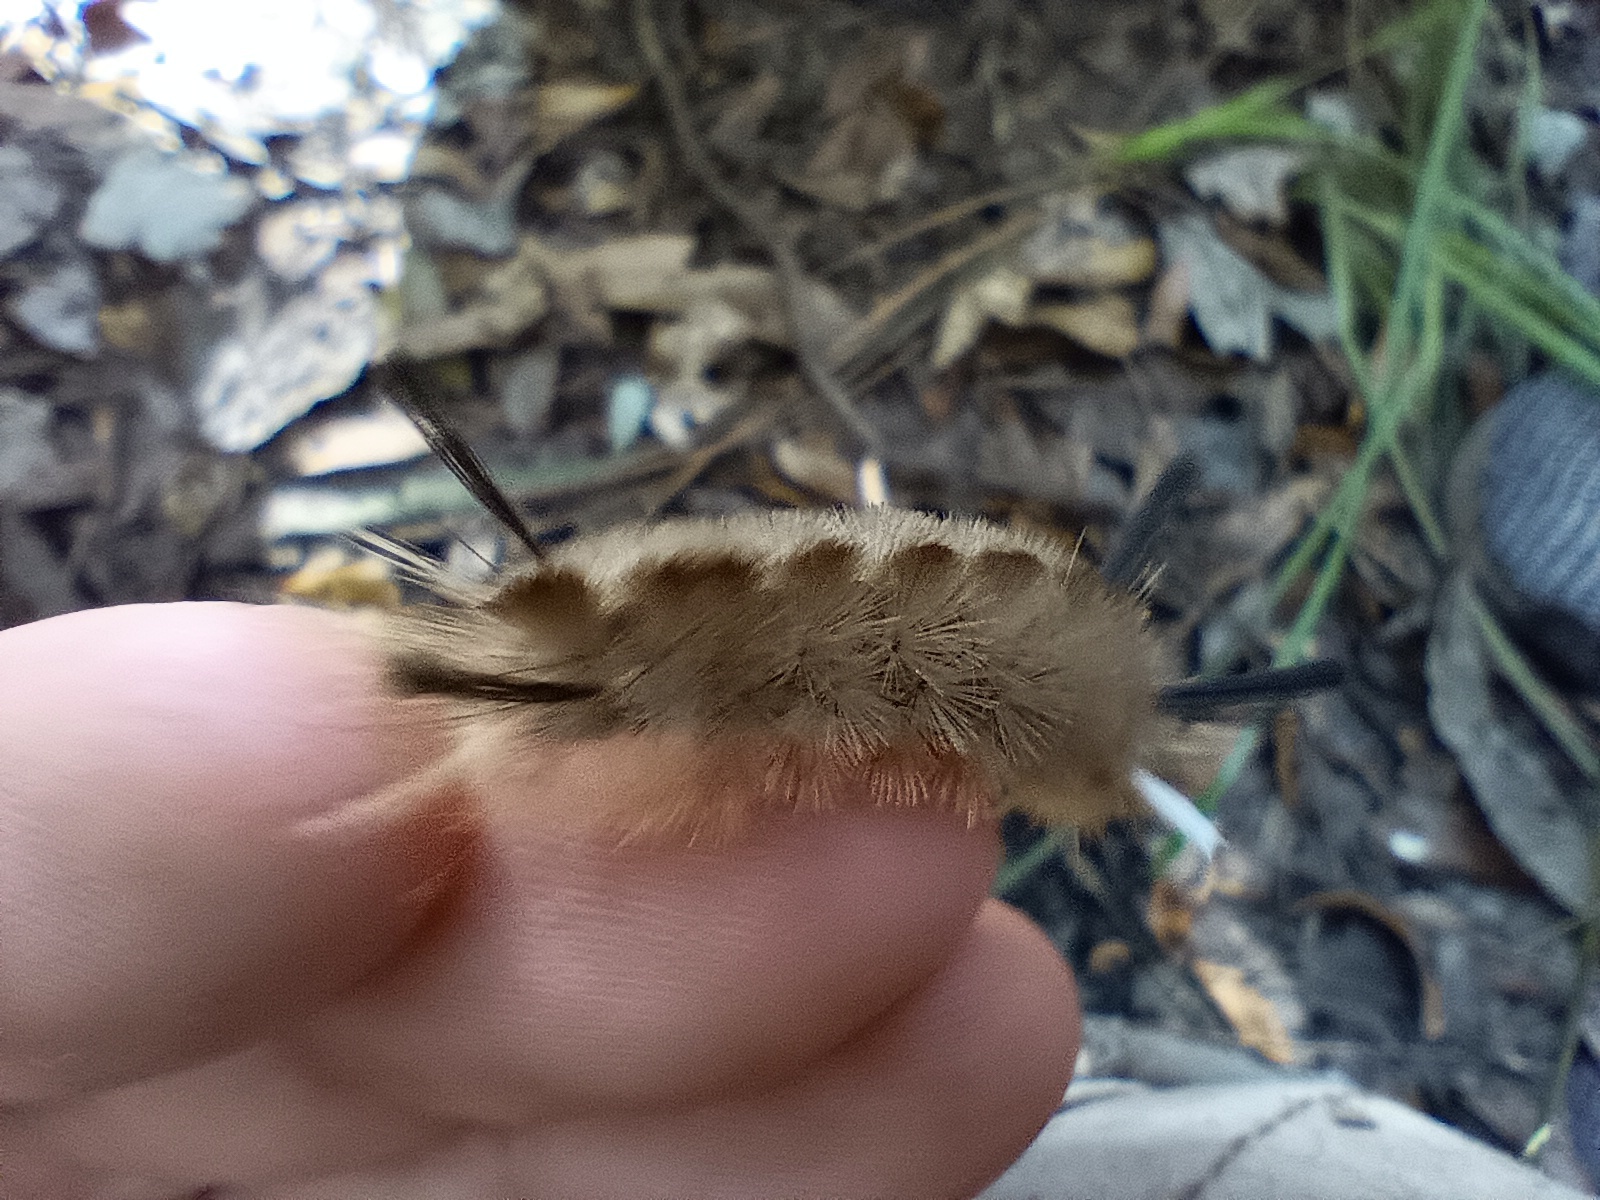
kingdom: Animalia
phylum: Arthropoda
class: Insecta
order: Lepidoptera
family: Erebidae
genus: Halysidota
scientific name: Halysidota tessellaris
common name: Banded tussock moth
